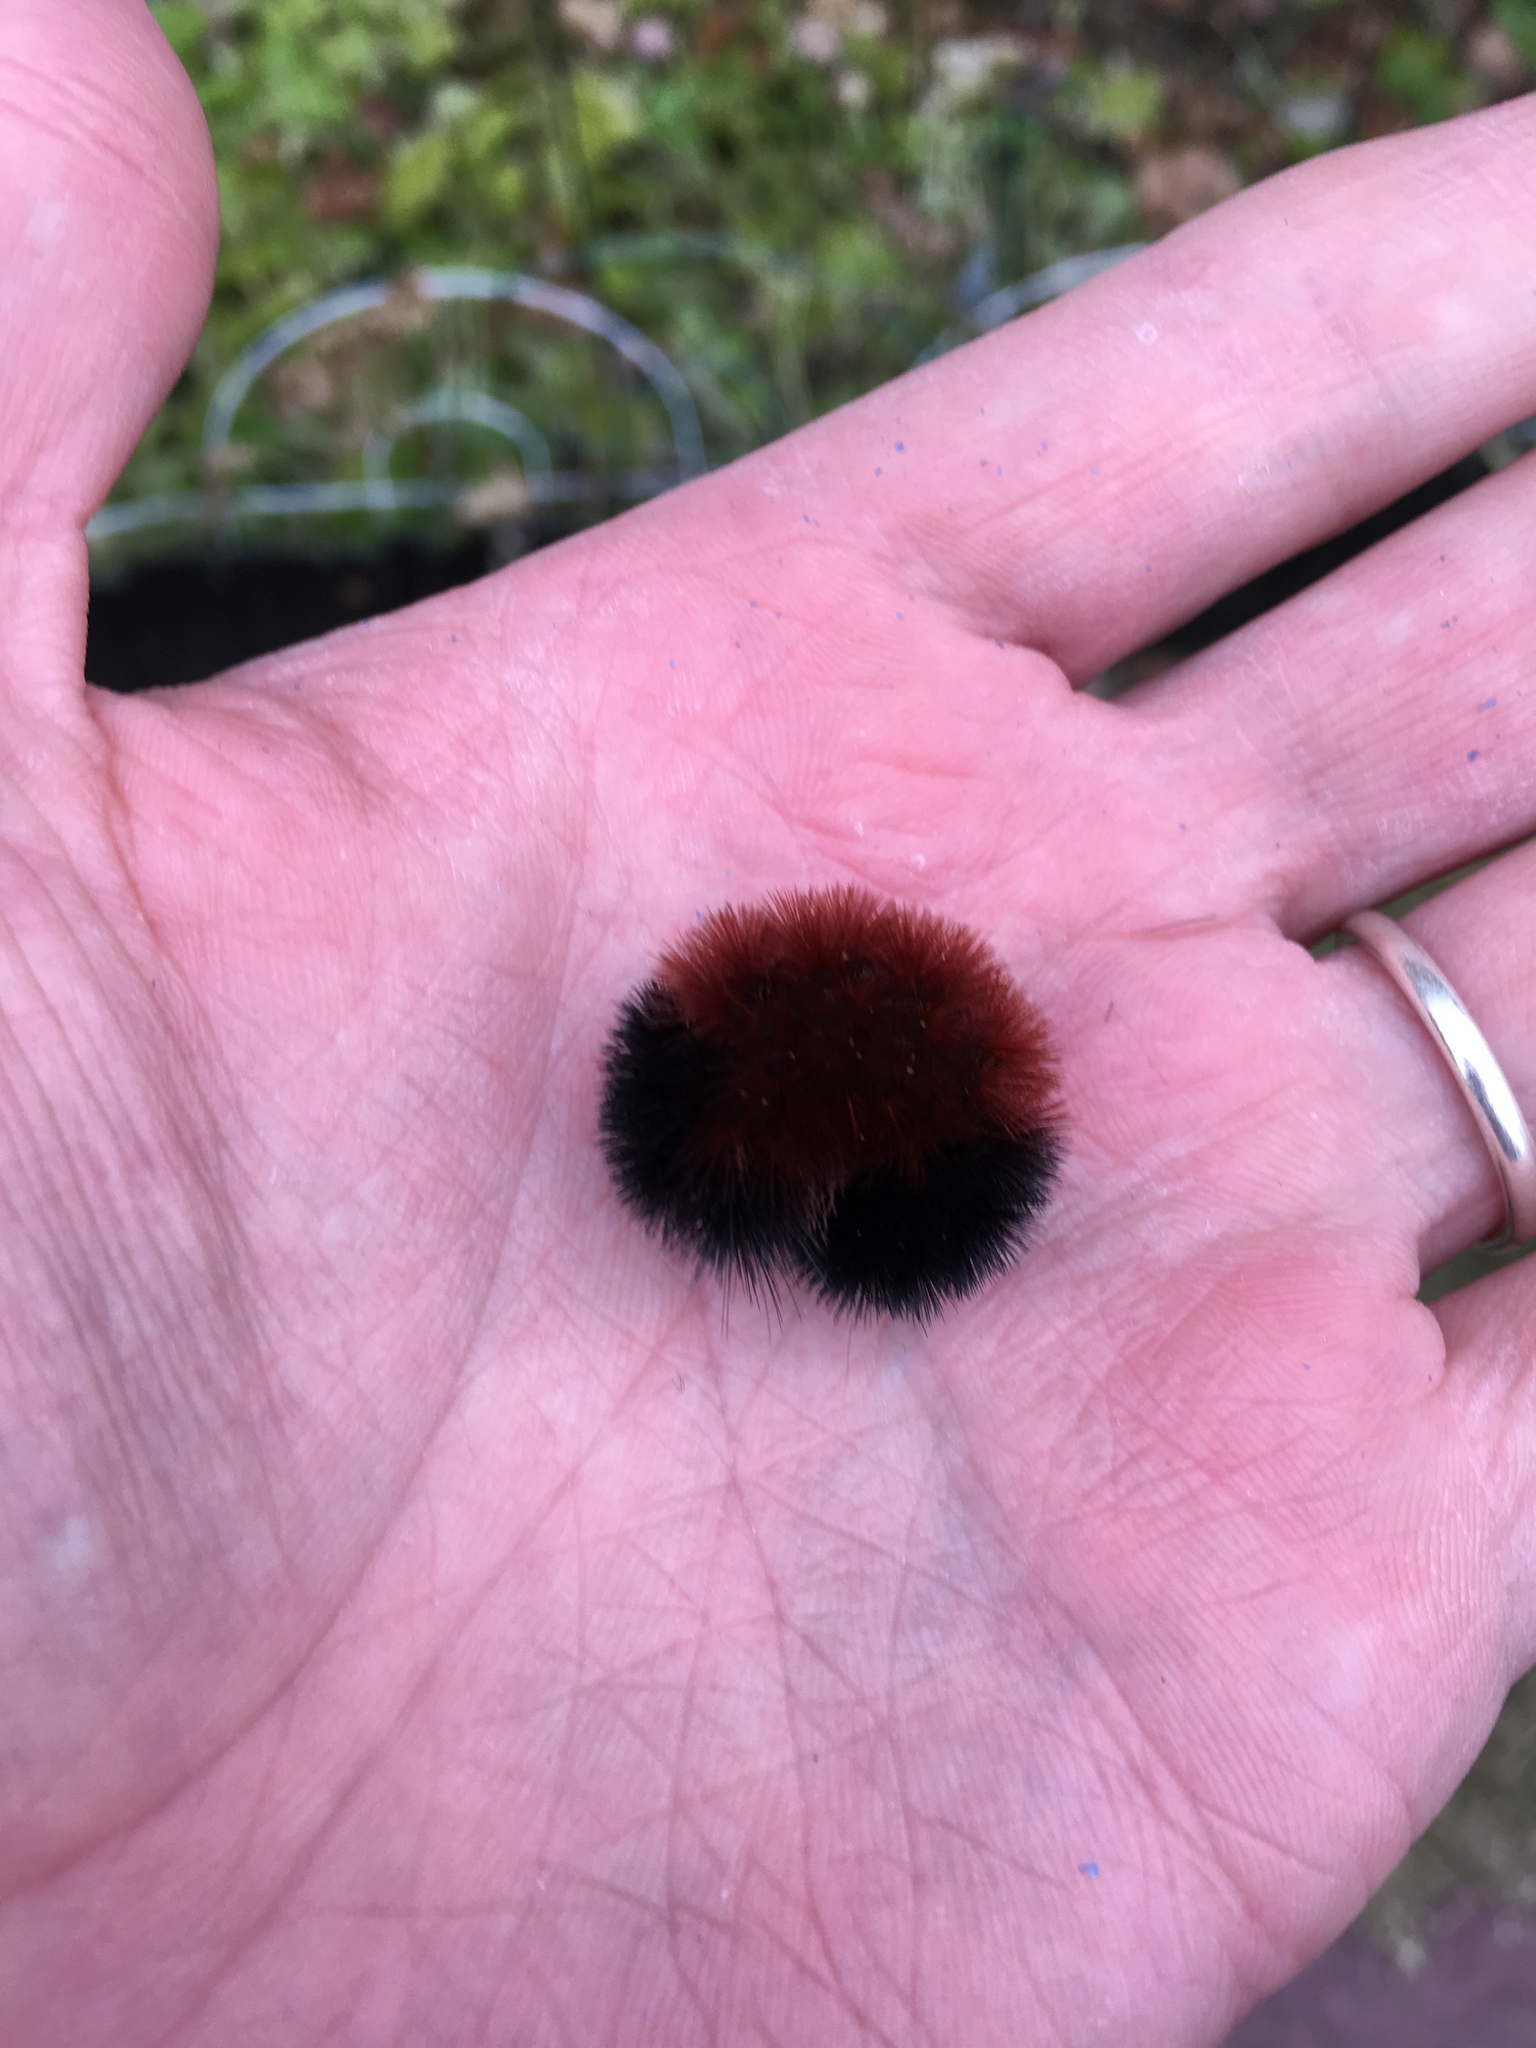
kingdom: Animalia
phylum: Arthropoda
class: Insecta
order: Lepidoptera
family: Erebidae
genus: Pyrrharctia
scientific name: Pyrrharctia isabella
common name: Isabella tiger moth
